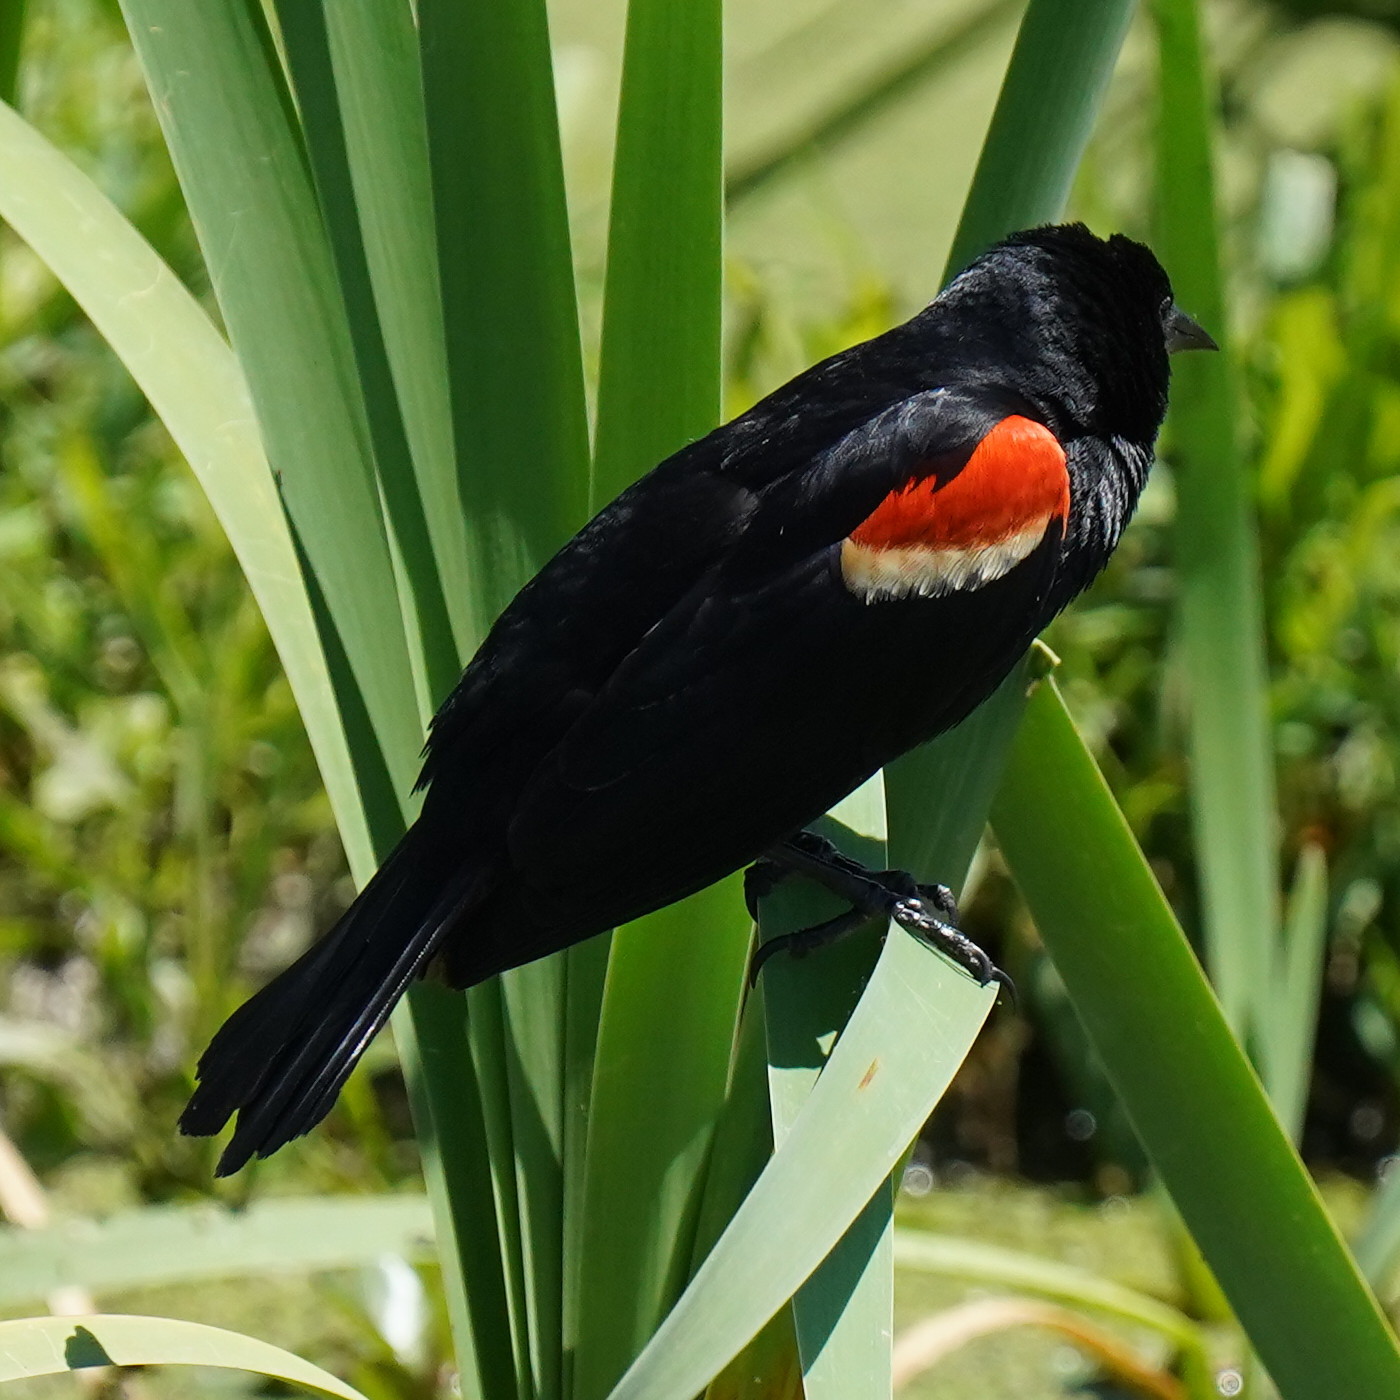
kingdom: Animalia
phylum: Chordata
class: Aves
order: Passeriformes
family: Icteridae
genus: Agelaius
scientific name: Agelaius phoeniceus
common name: Red-winged blackbird
